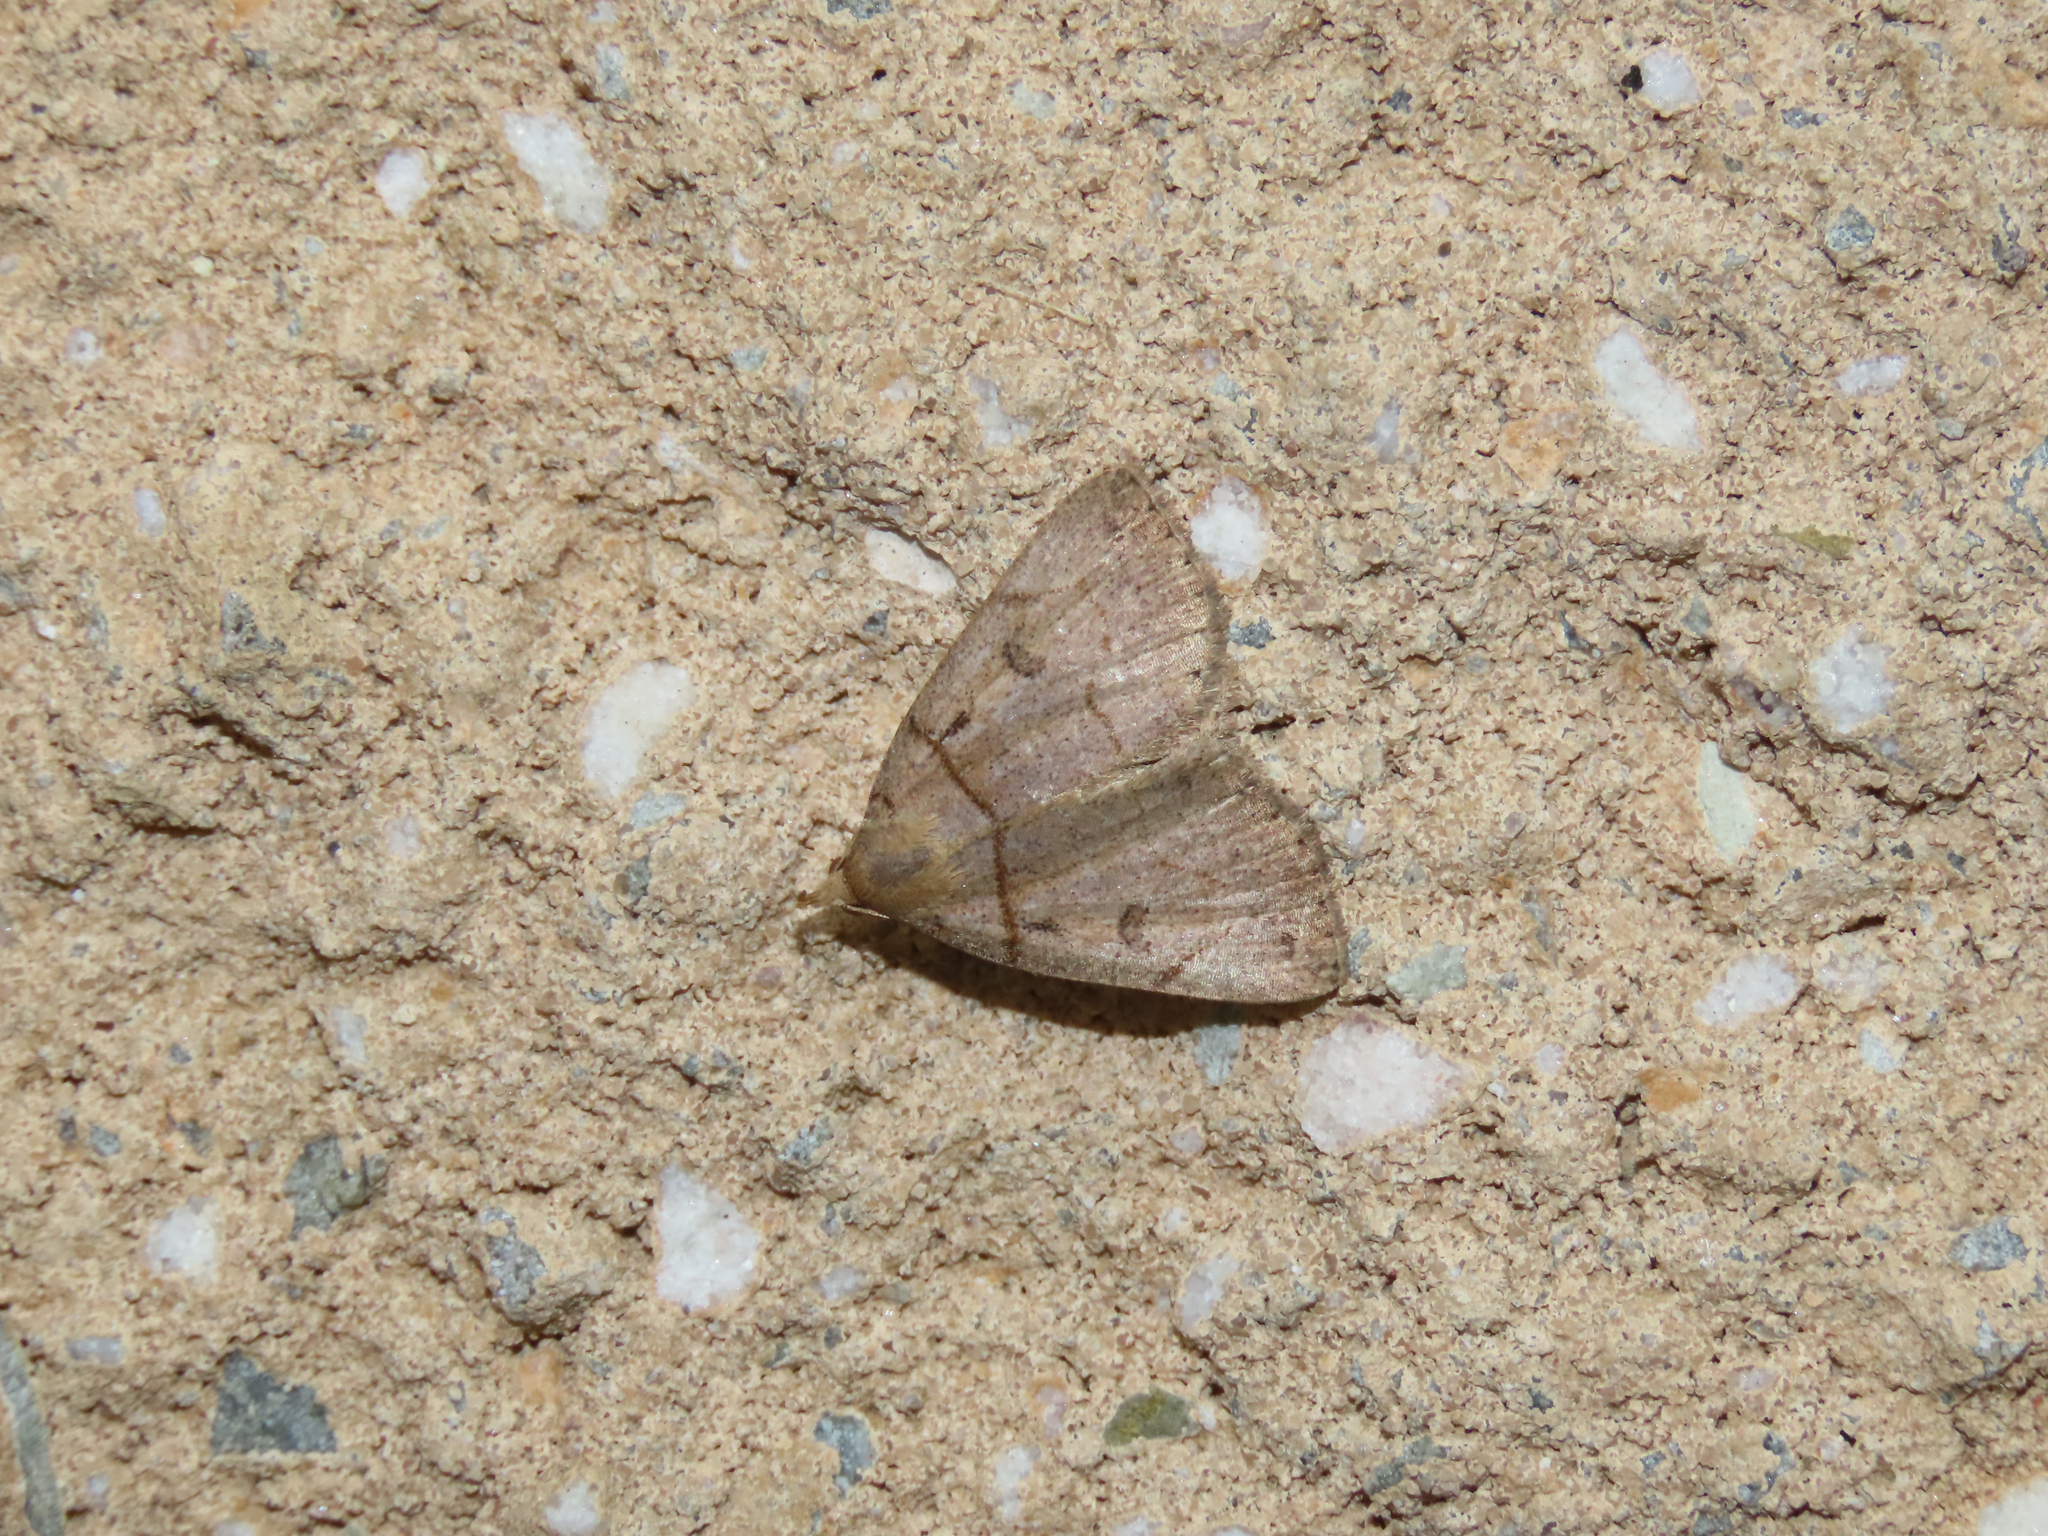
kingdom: Animalia
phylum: Arthropoda
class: Insecta
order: Lepidoptera
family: Erebidae
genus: Zanclognatha
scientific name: Zanclognatha laevigata
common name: Variable fan-foot
